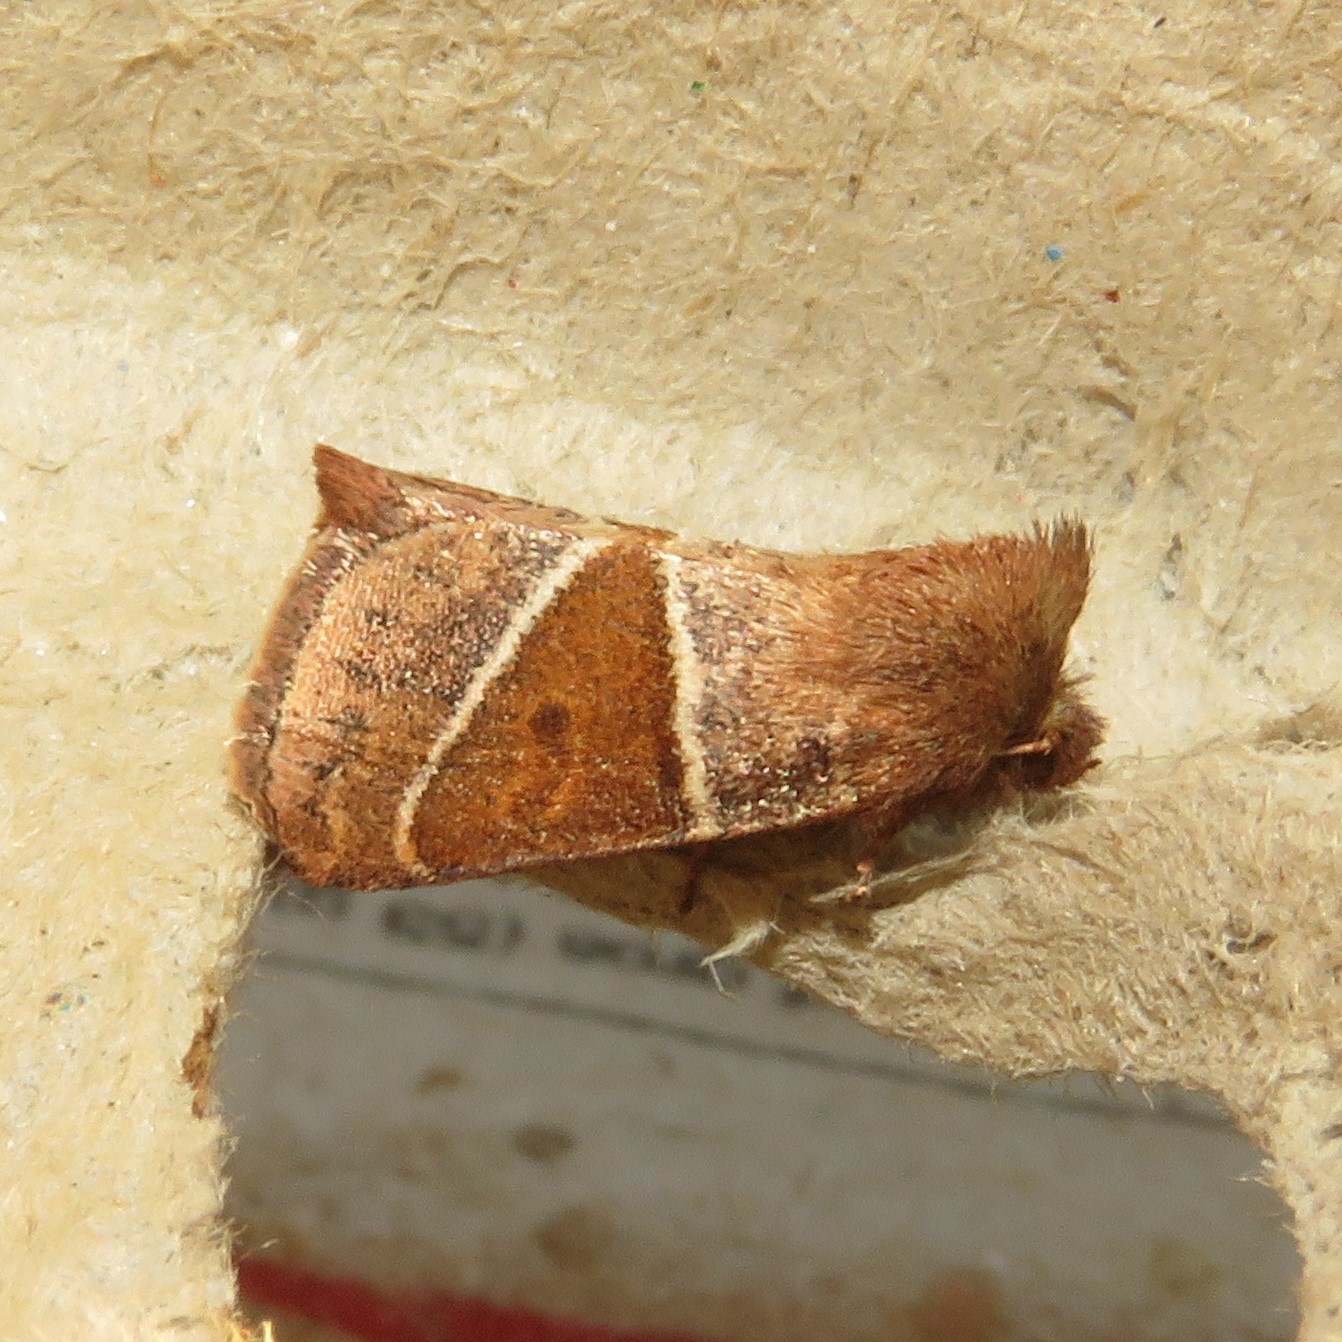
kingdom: Animalia
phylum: Arthropoda
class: Insecta
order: Lepidoptera
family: Noctuidae
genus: Lemmeria
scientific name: Lemmeria digitalis
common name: Fingered lemmeria moth
